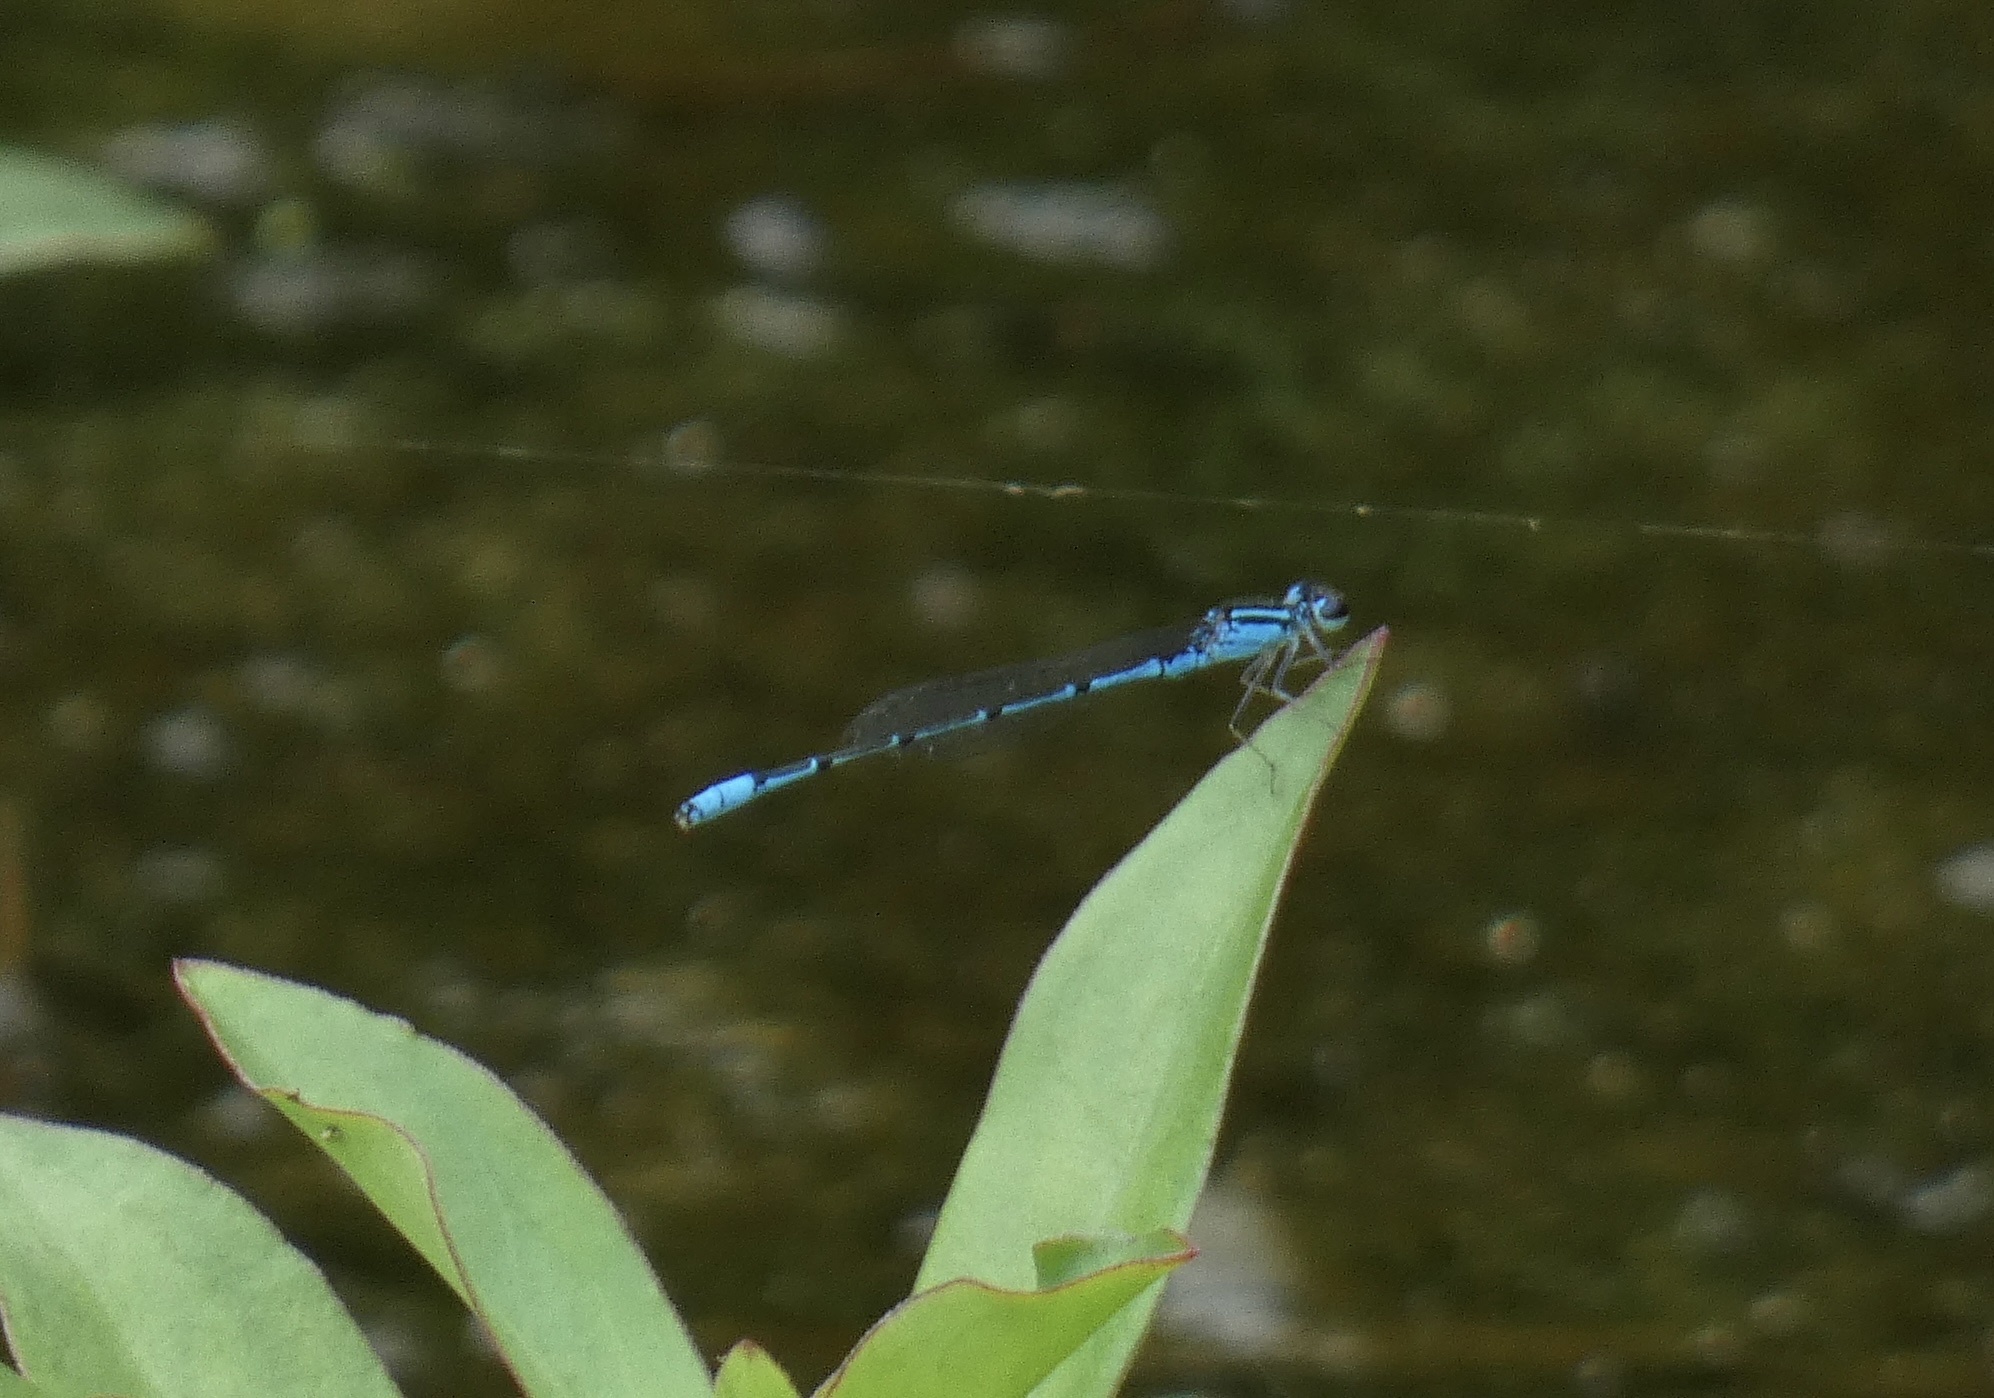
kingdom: Animalia
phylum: Arthropoda
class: Insecta
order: Odonata
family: Coenagrionidae
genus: Acanthagrion
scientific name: Acanthagrion temporale
